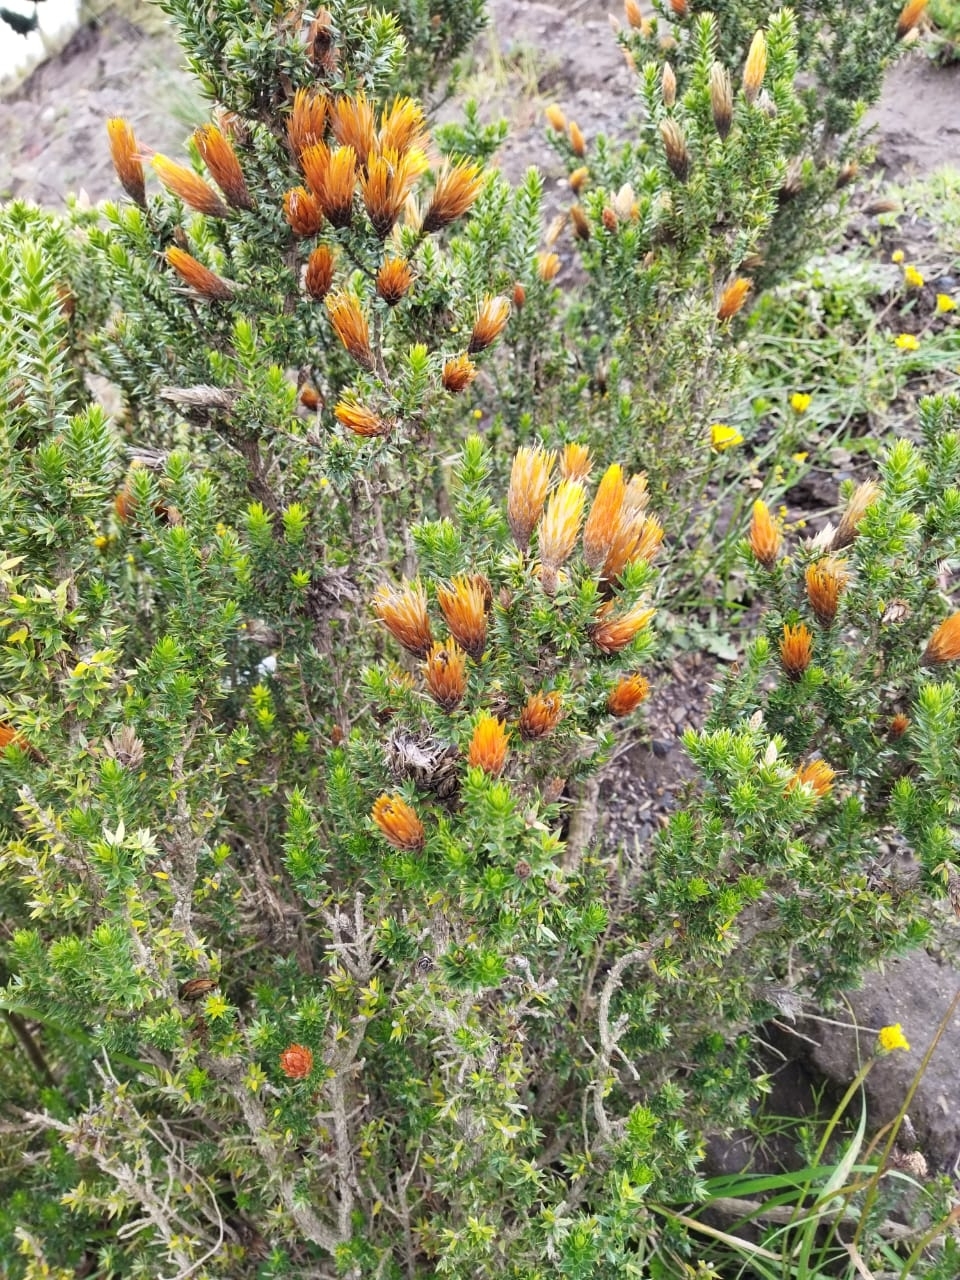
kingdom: Plantae
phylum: Tracheophyta
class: Magnoliopsida
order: Asterales
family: Asteraceae
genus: Chuquiraga
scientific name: Chuquiraga jussieui
